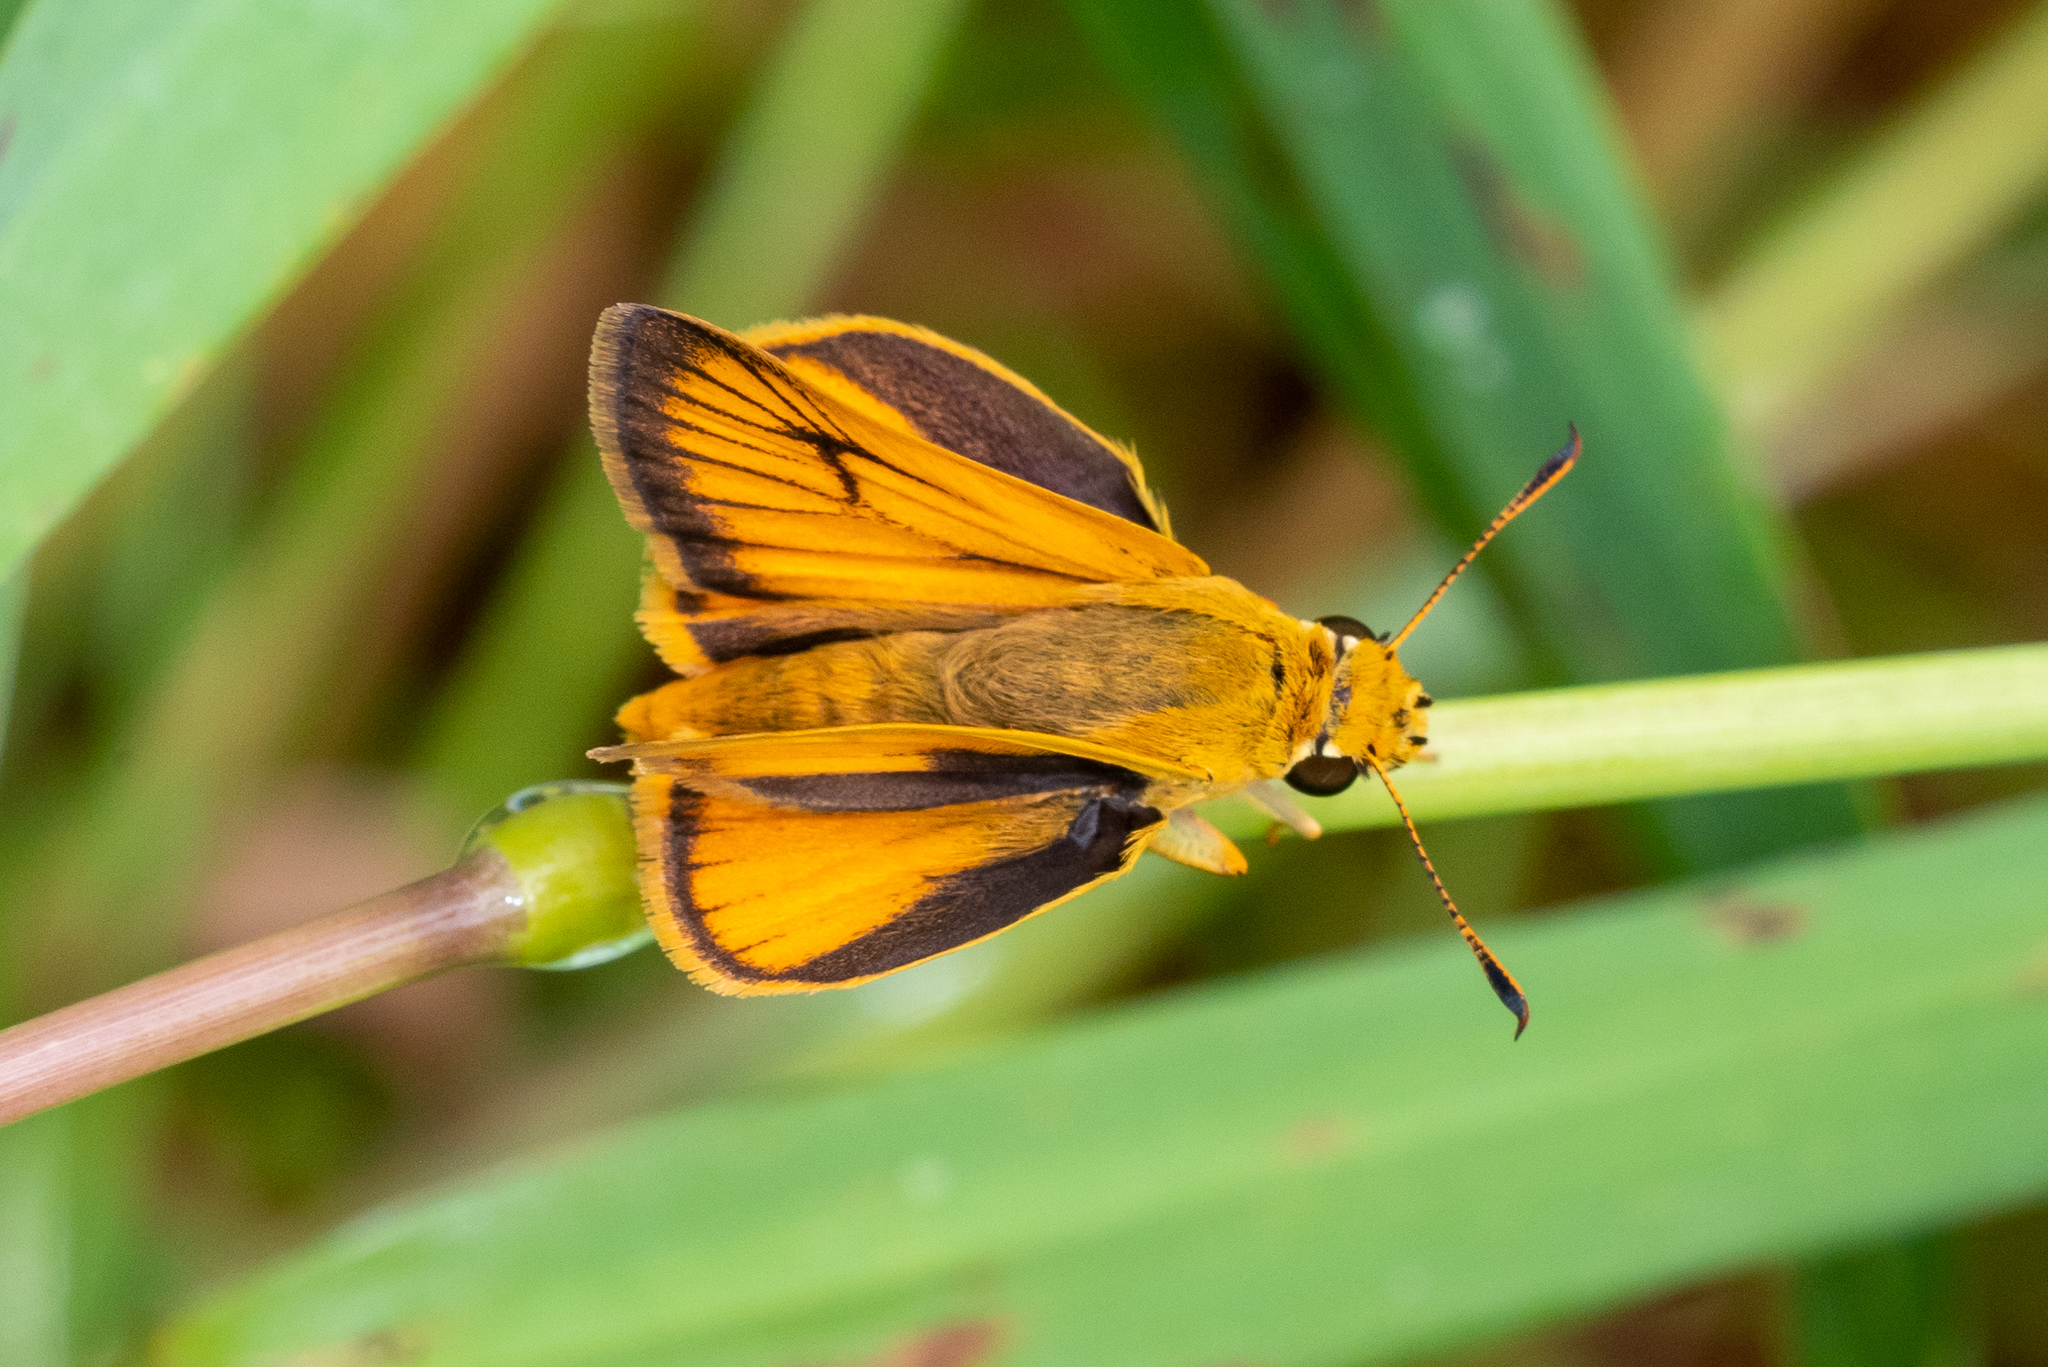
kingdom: Animalia
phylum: Arthropoda
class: Insecta
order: Lepidoptera
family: Hesperiidae
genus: Atrytone
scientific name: Atrytone delaware
